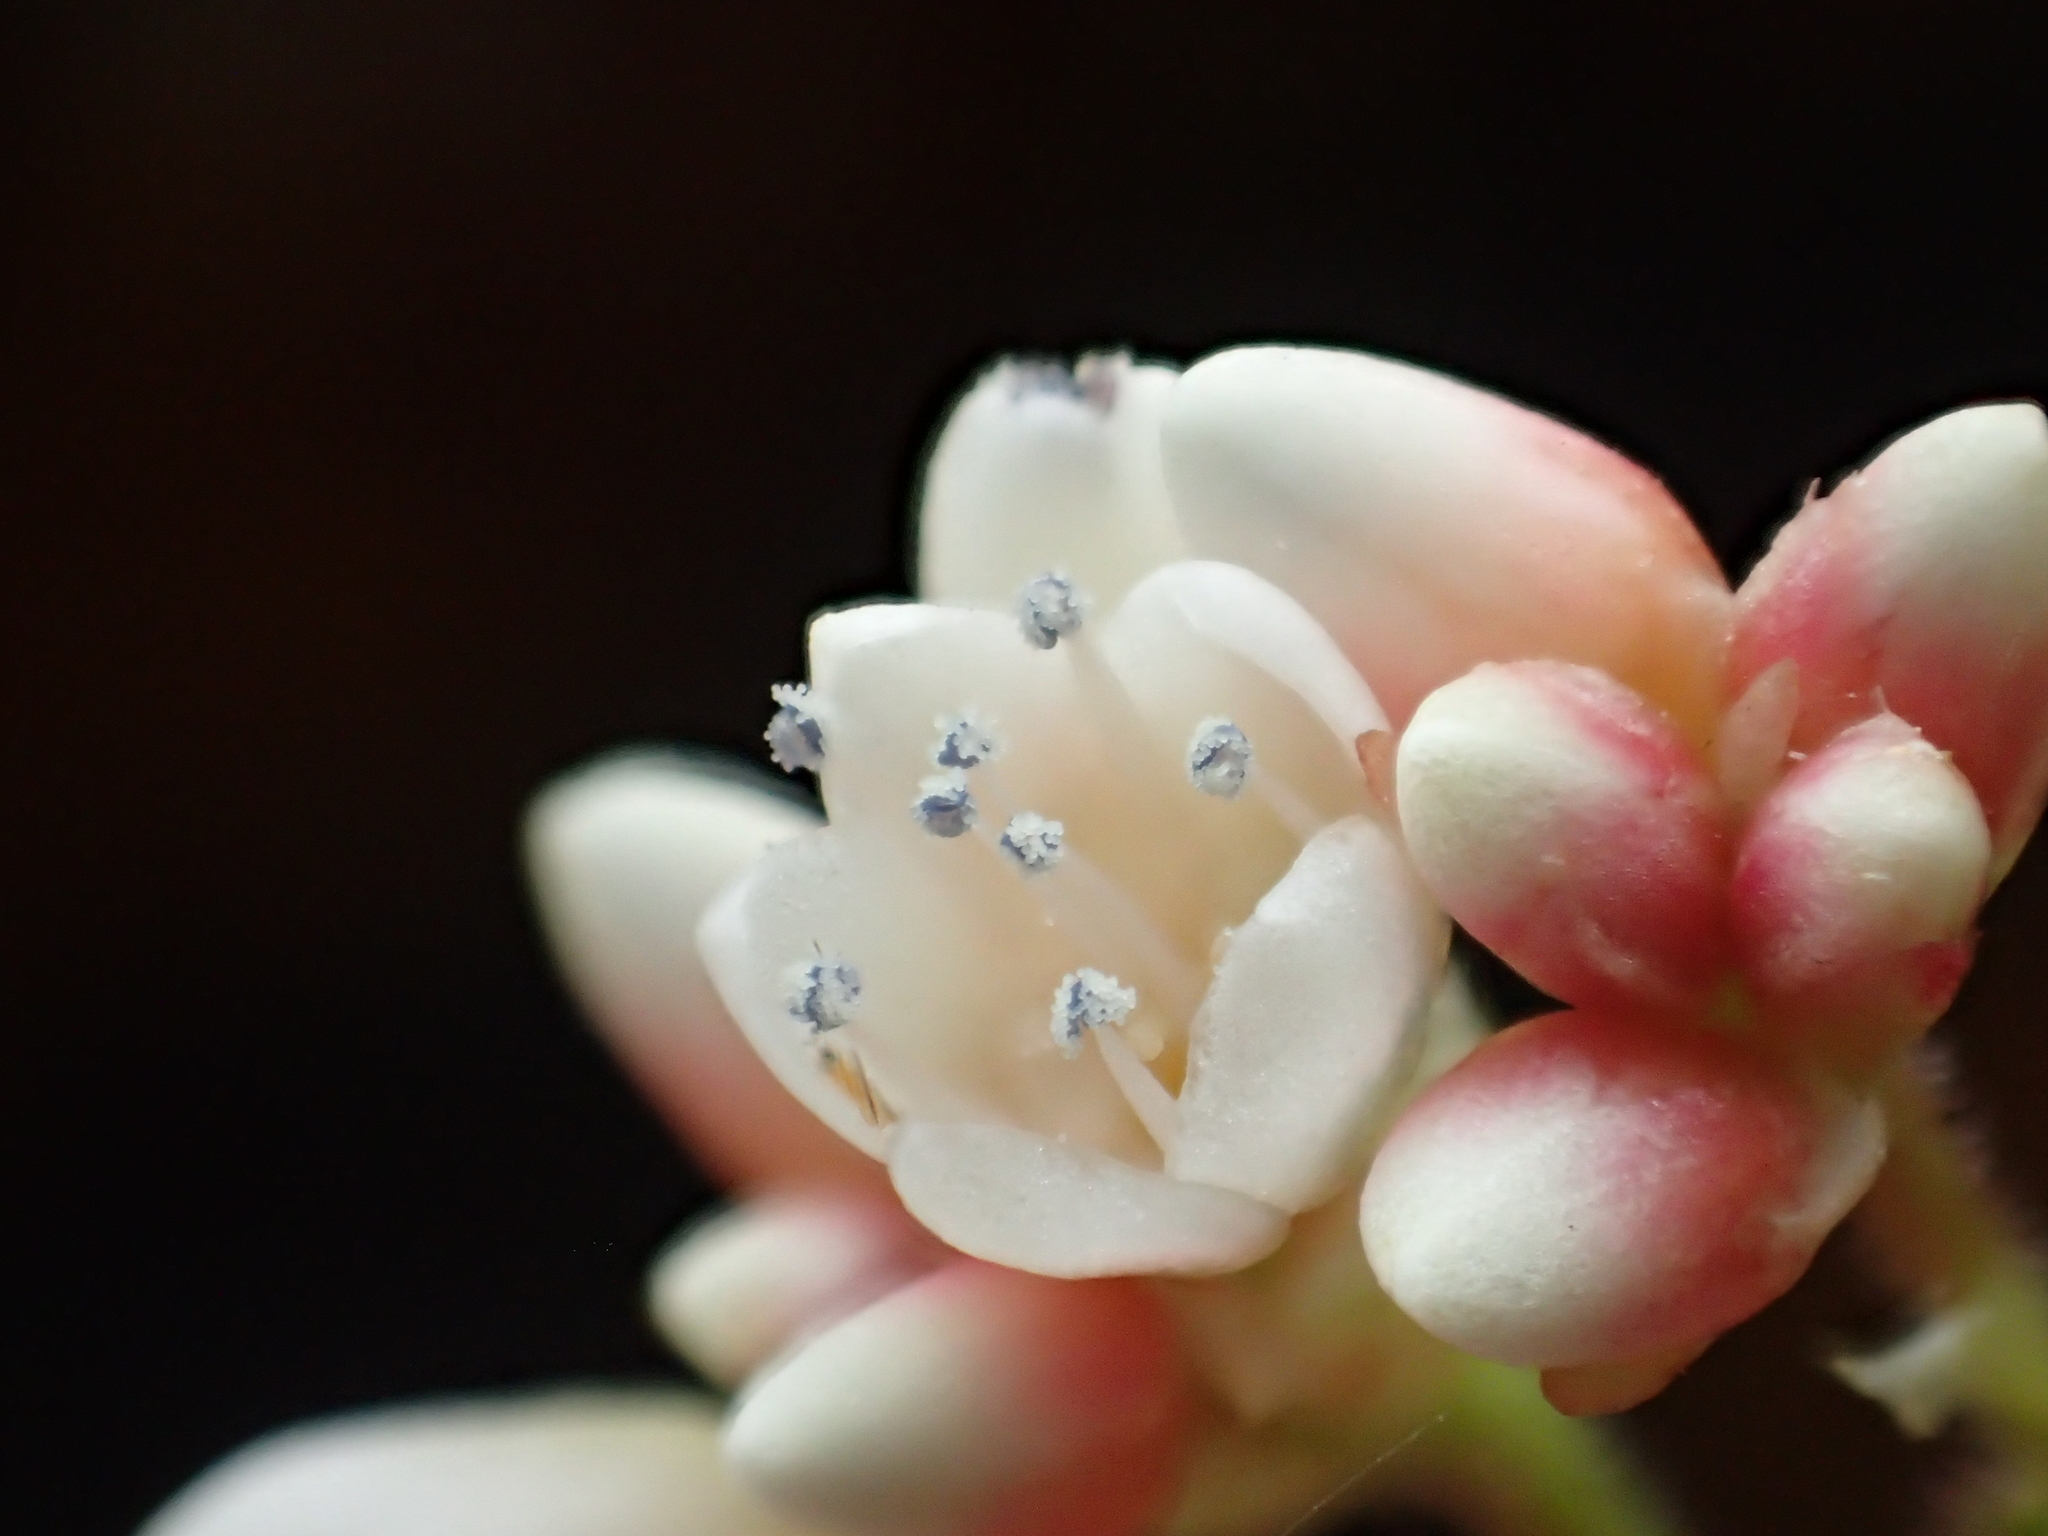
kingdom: Plantae
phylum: Tracheophyta
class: Magnoliopsida
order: Caryophyllales
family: Polygonaceae
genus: Persicaria
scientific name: Persicaria chinensis
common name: Chinese knotweed
